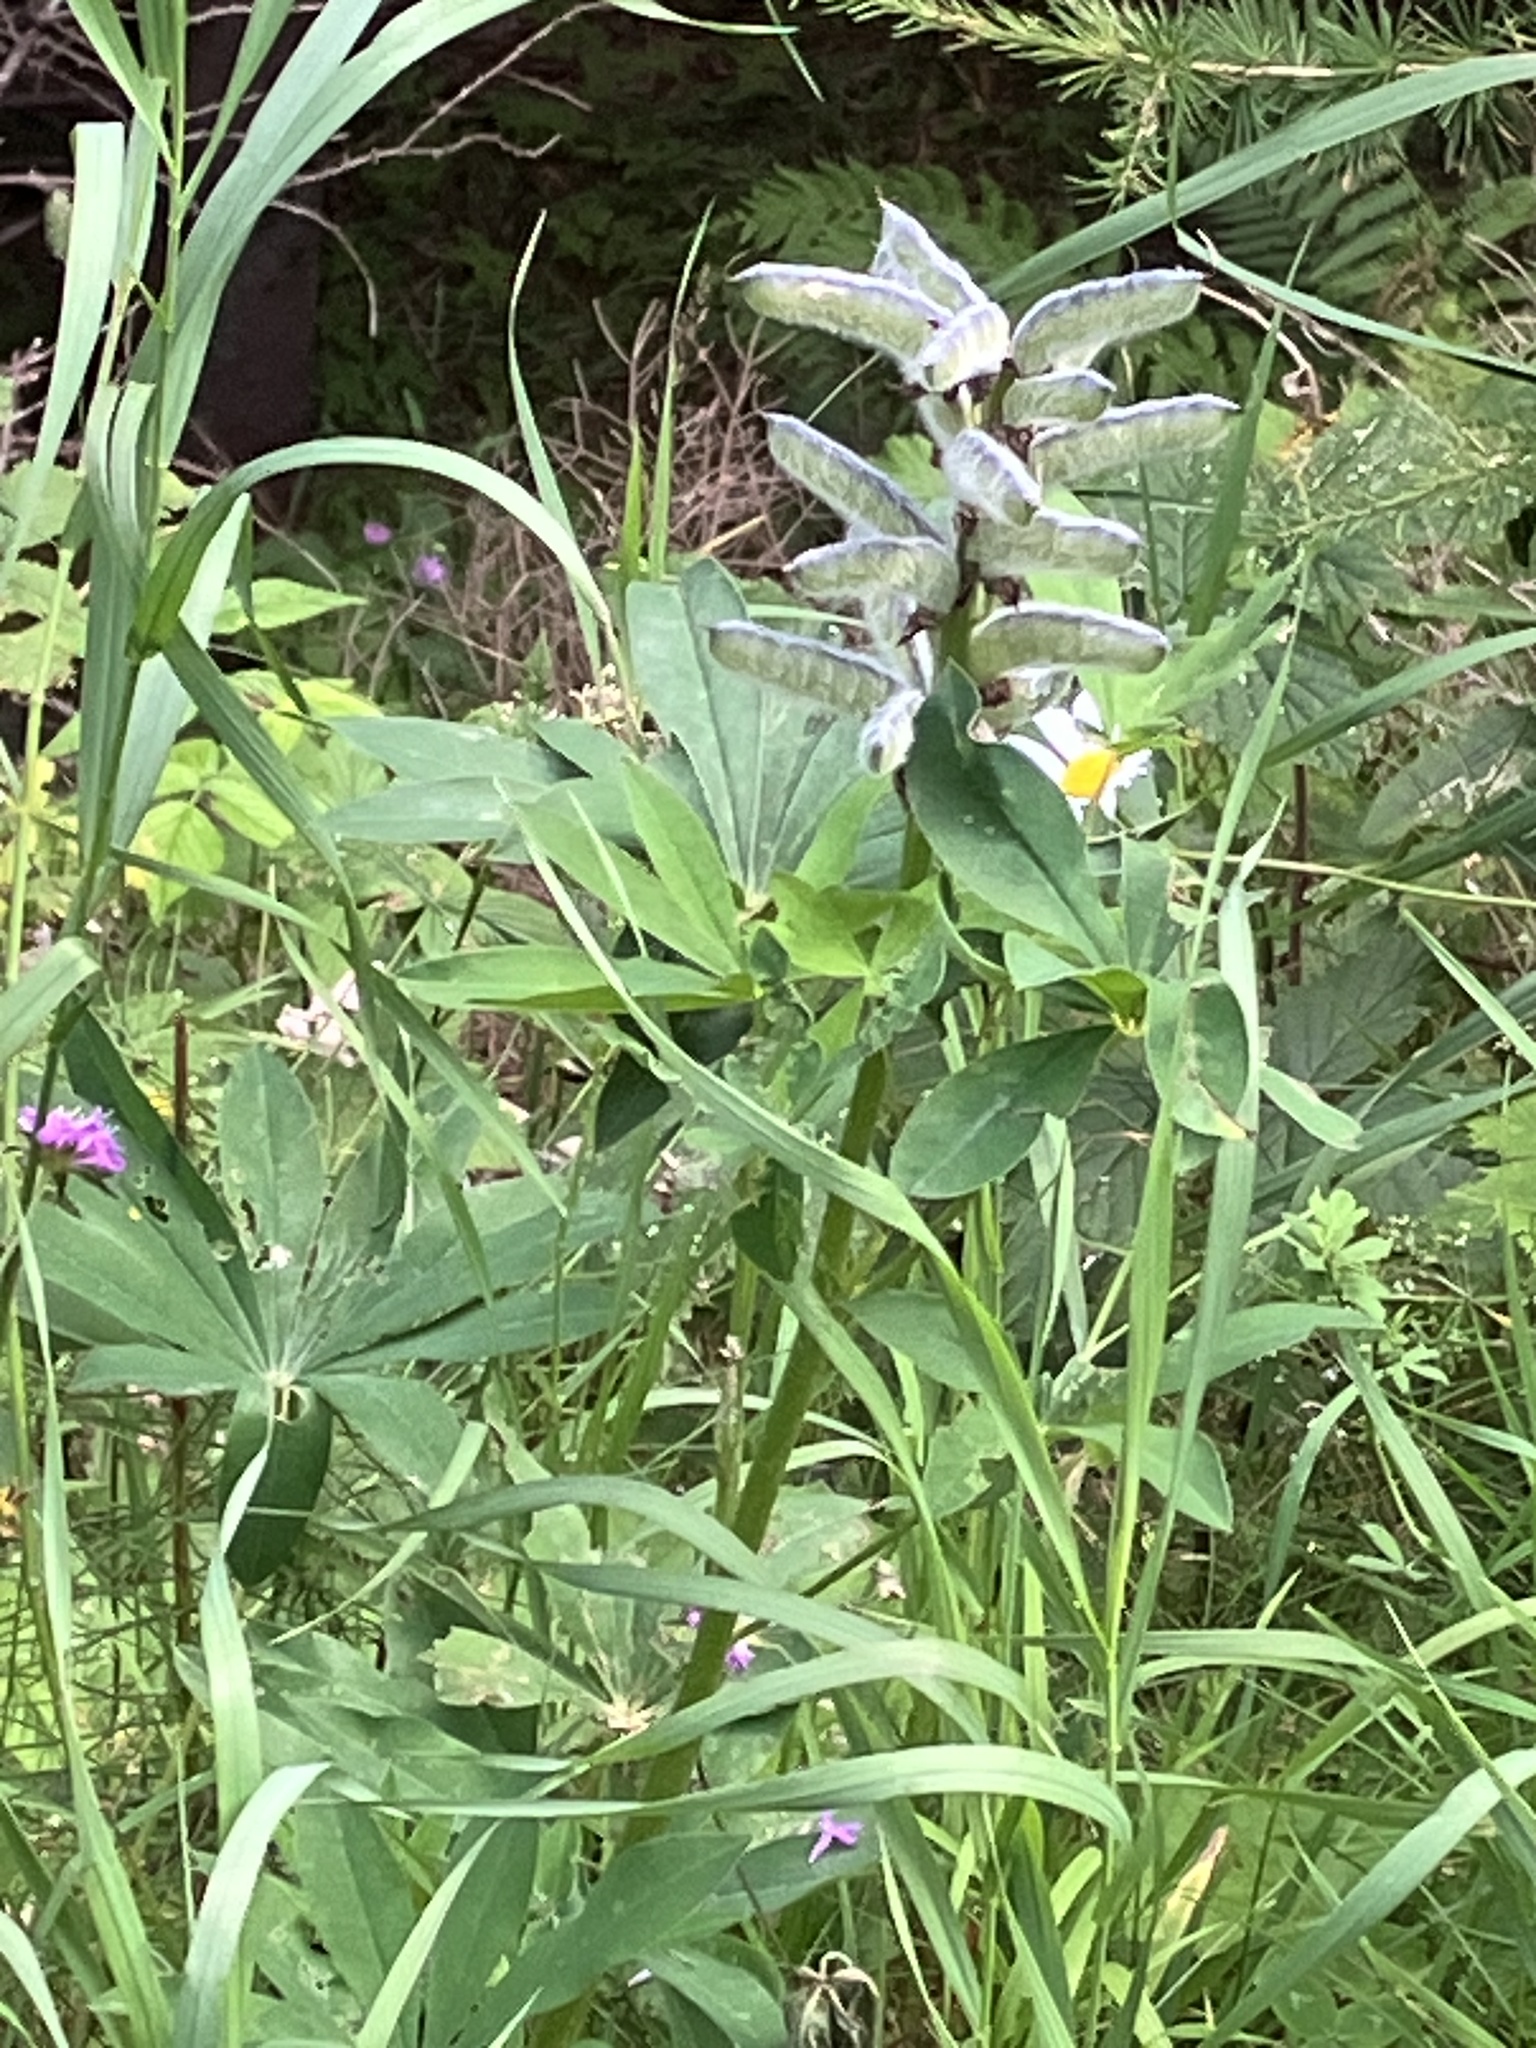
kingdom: Plantae
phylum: Tracheophyta
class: Magnoliopsida
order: Fabales
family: Fabaceae
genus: Lupinus
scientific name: Lupinus polyphyllus
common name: Garden lupin
